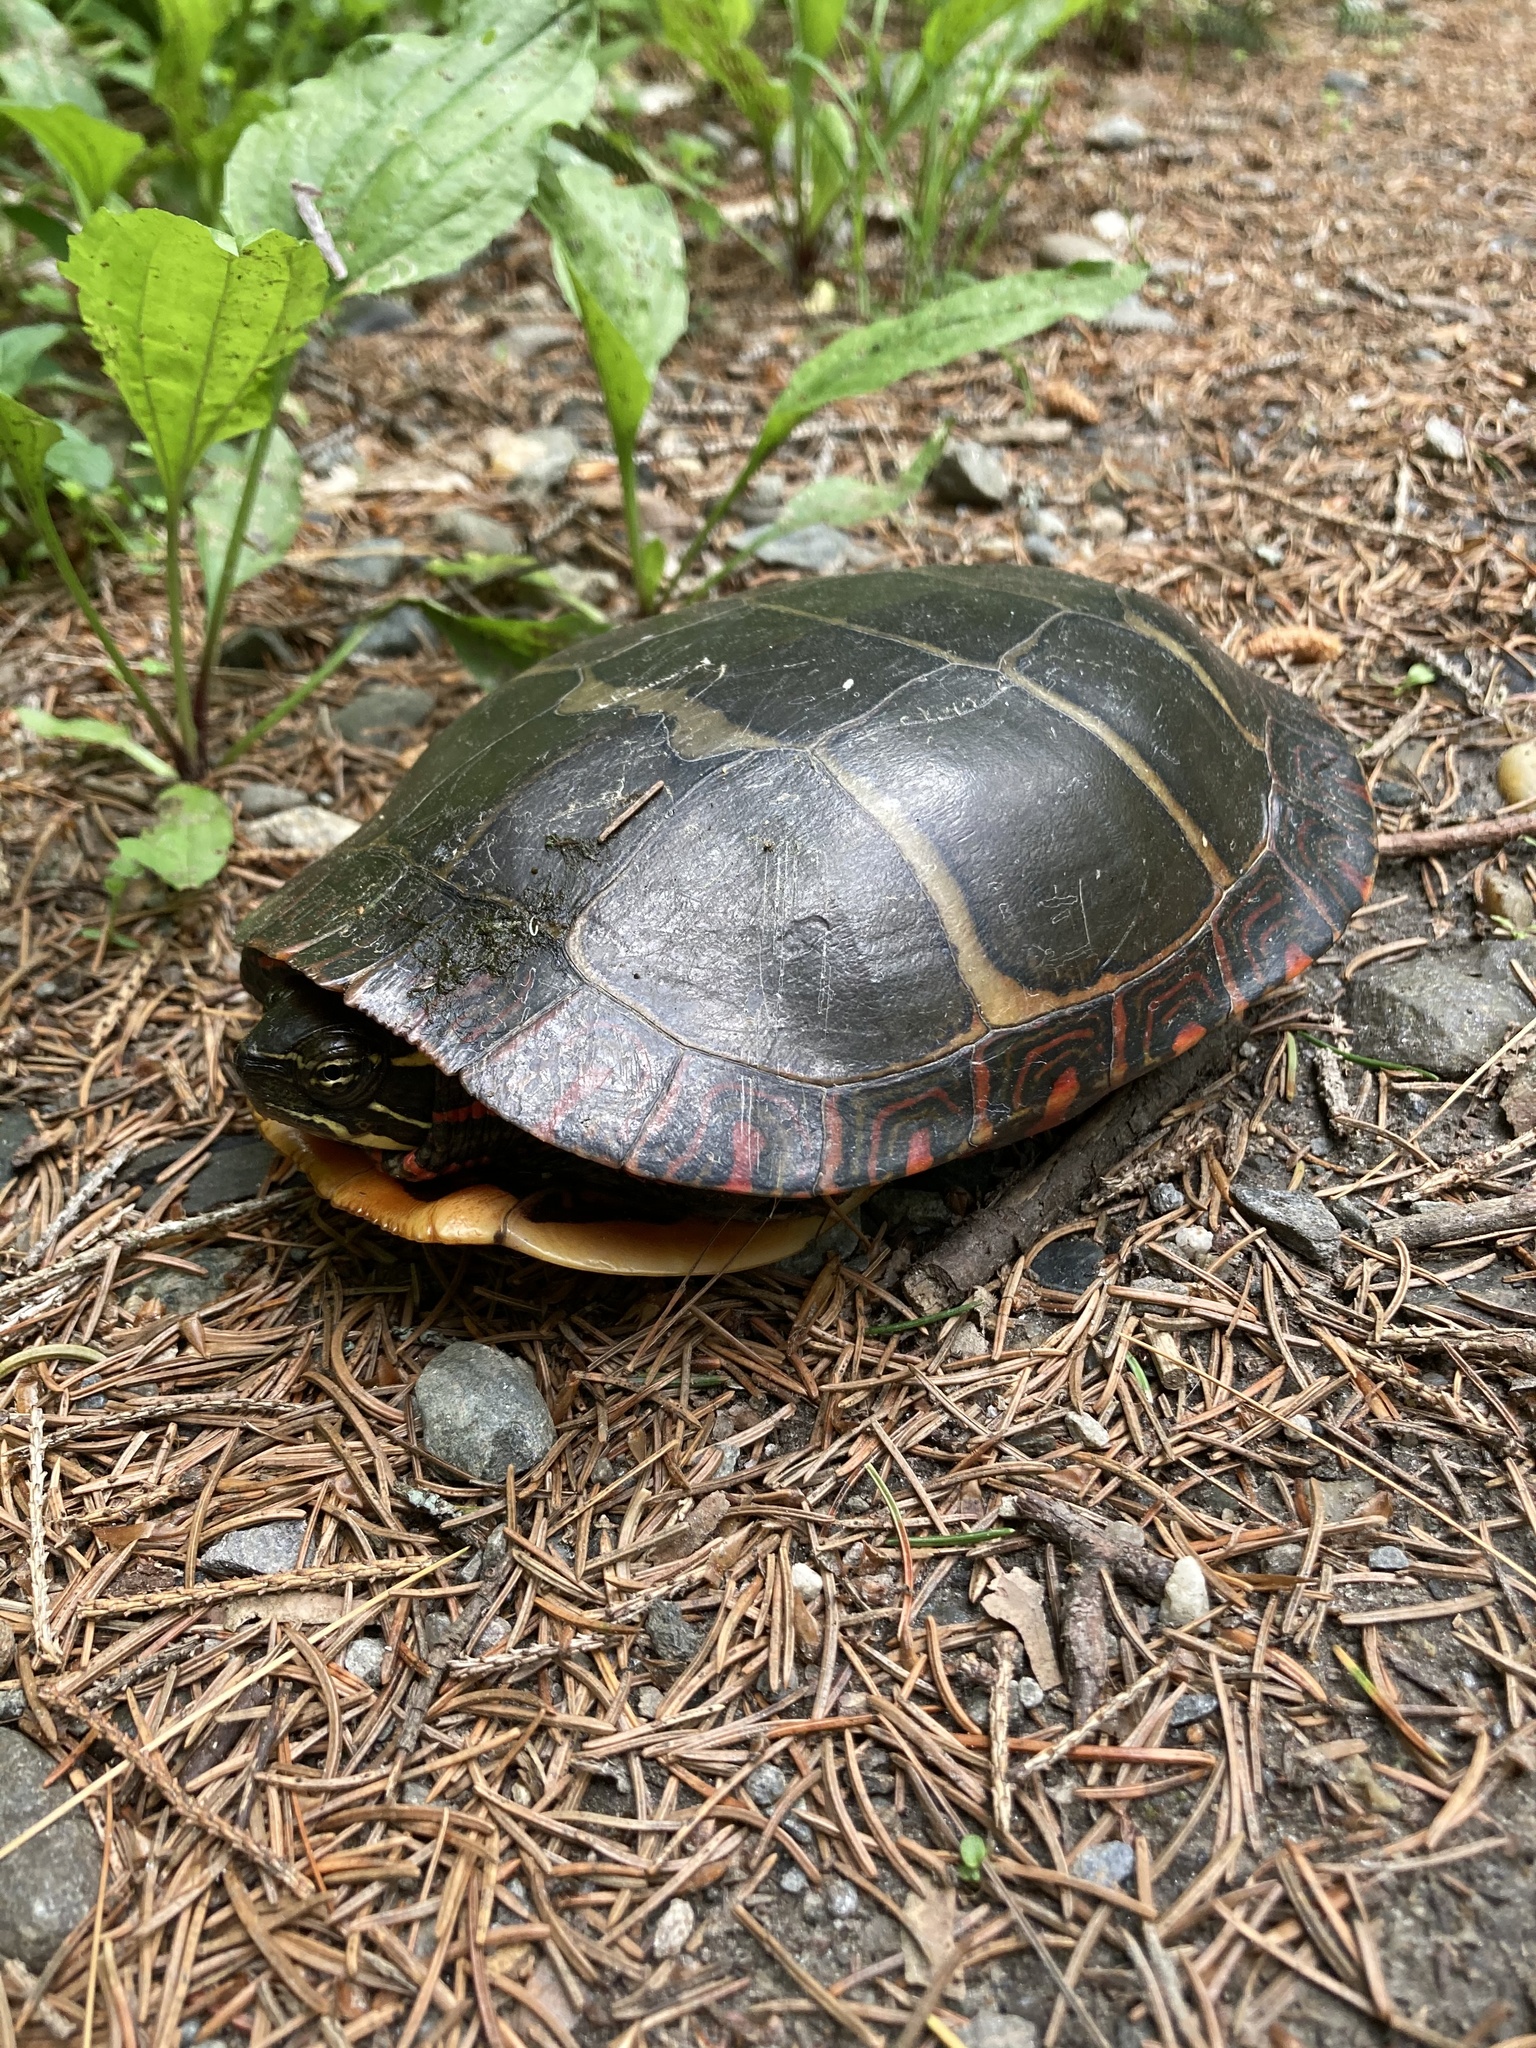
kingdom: Animalia
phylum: Chordata
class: Testudines
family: Emydidae
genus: Chrysemys
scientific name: Chrysemys picta
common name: Painted turtle
